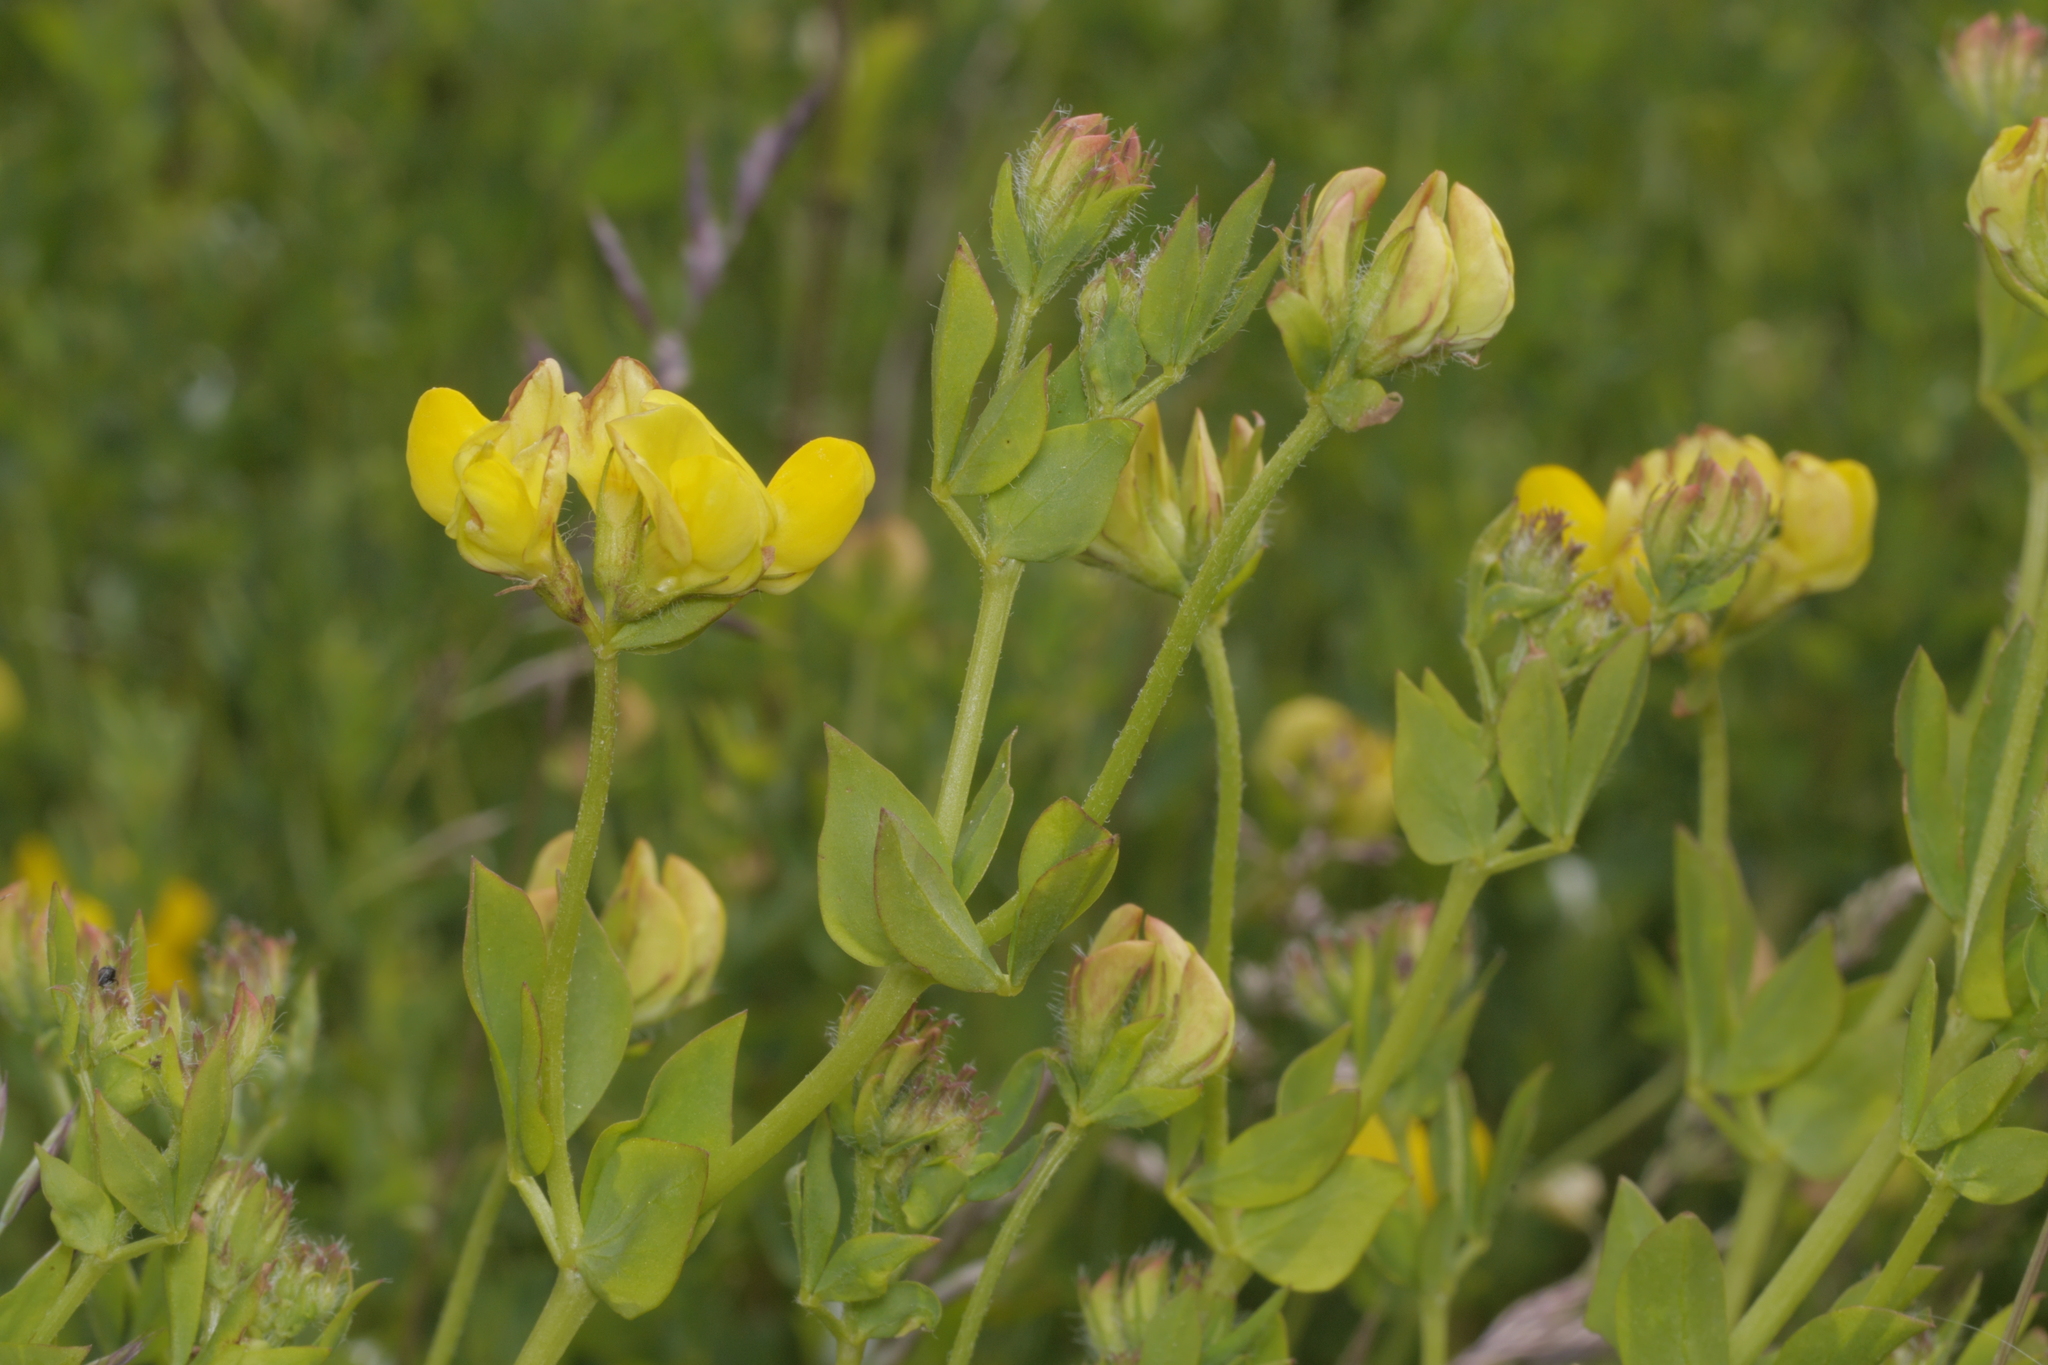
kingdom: Plantae
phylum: Tracheophyta
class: Magnoliopsida
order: Fabales
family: Fabaceae
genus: Lotus
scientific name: Lotus corniculatus
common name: Common bird's-foot-trefoil
